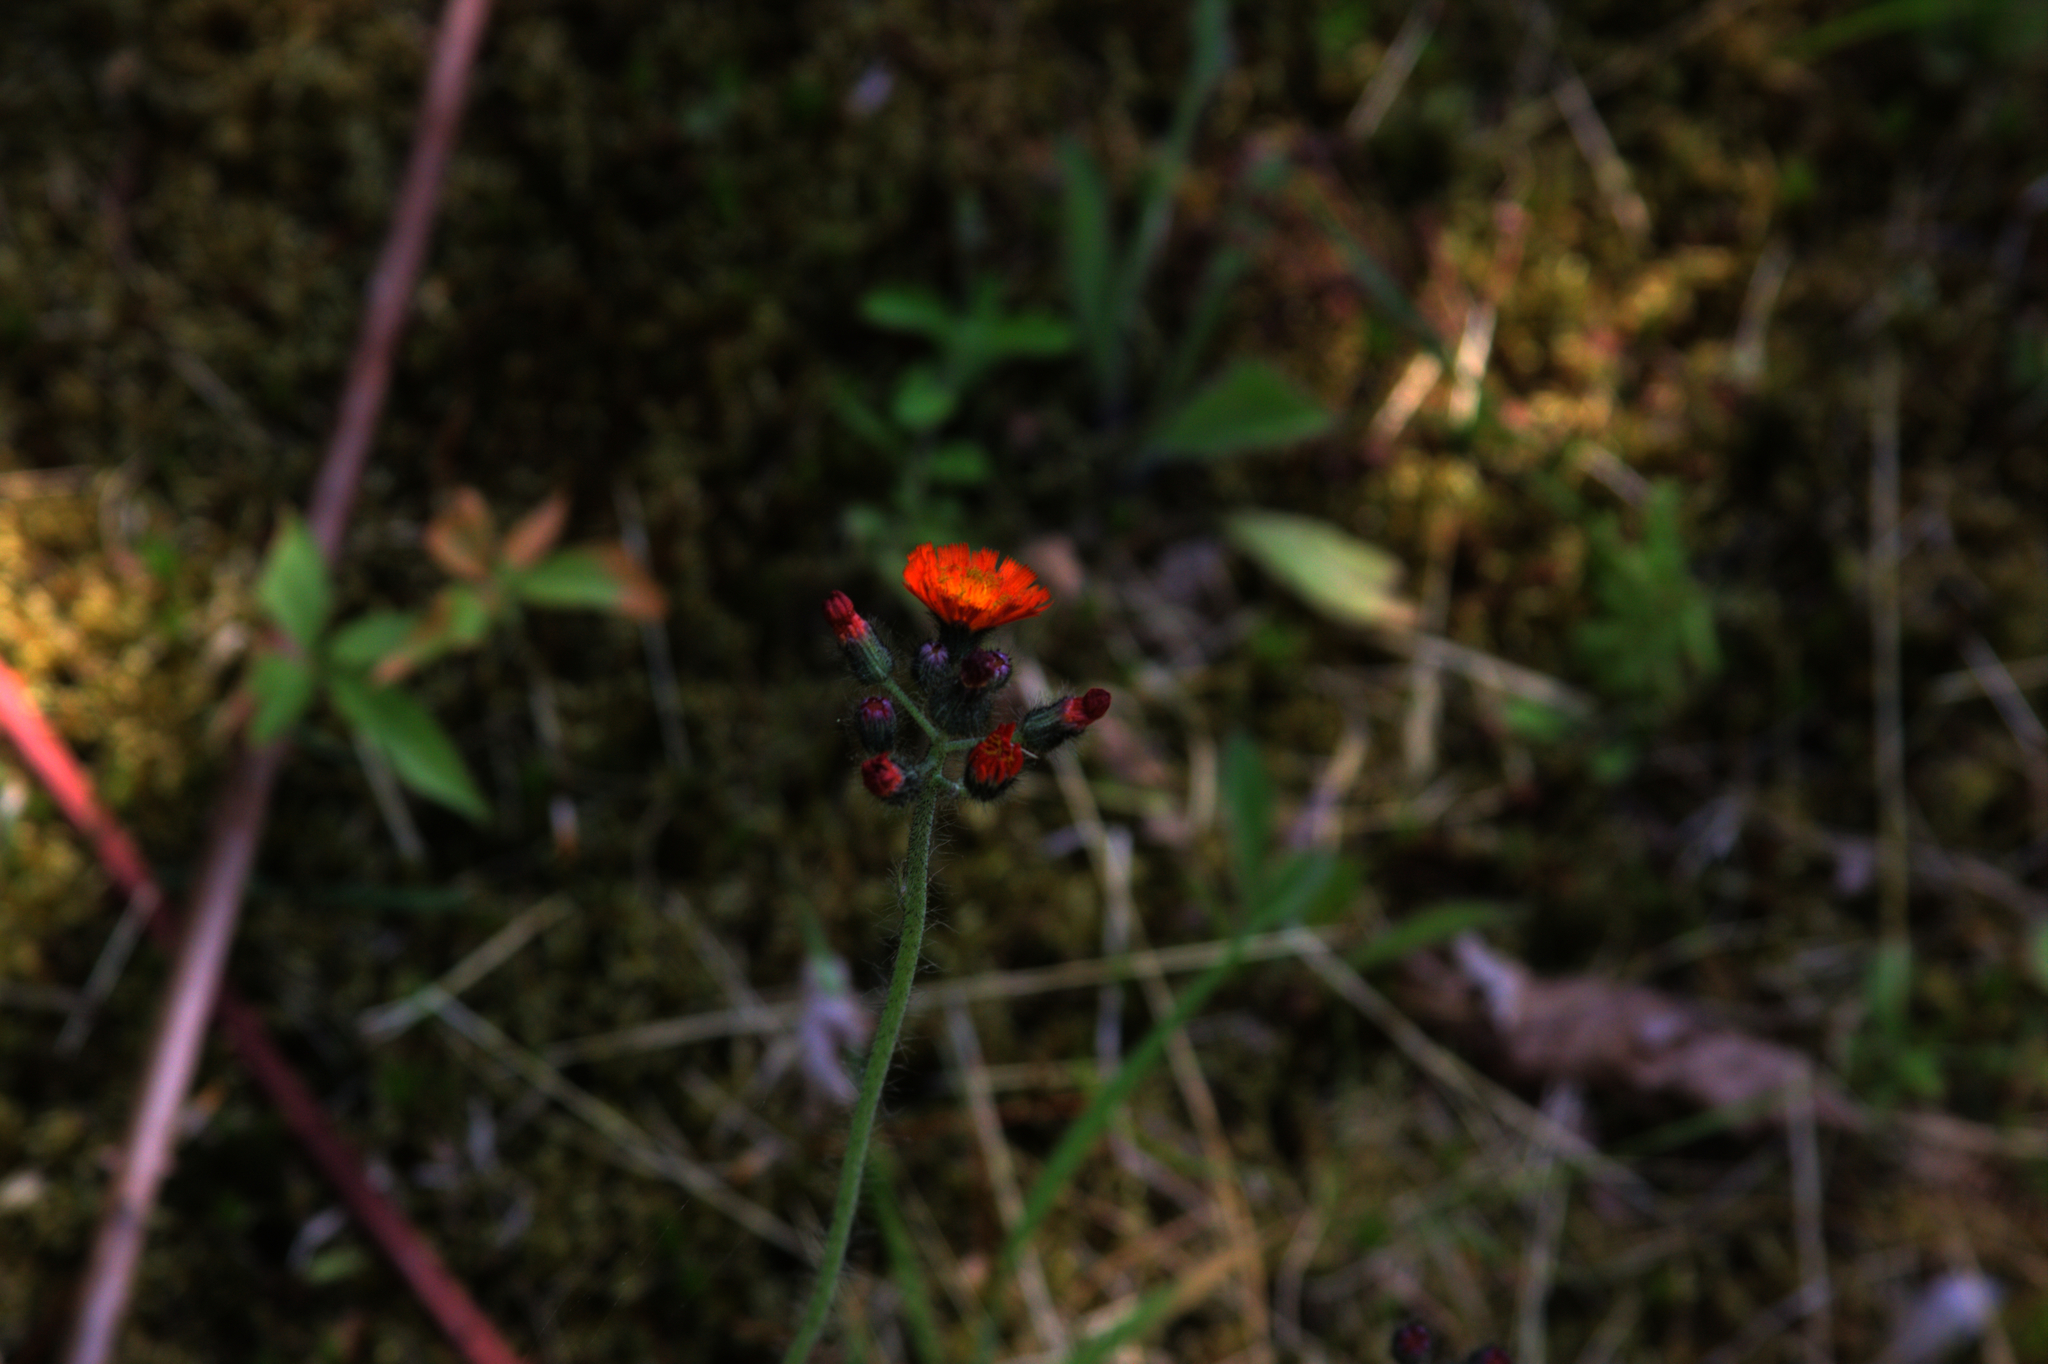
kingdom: Plantae
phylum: Tracheophyta
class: Magnoliopsida
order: Asterales
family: Asteraceae
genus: Pilosella
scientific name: Pilosella aurantiaca
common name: Fox-and-cubs
